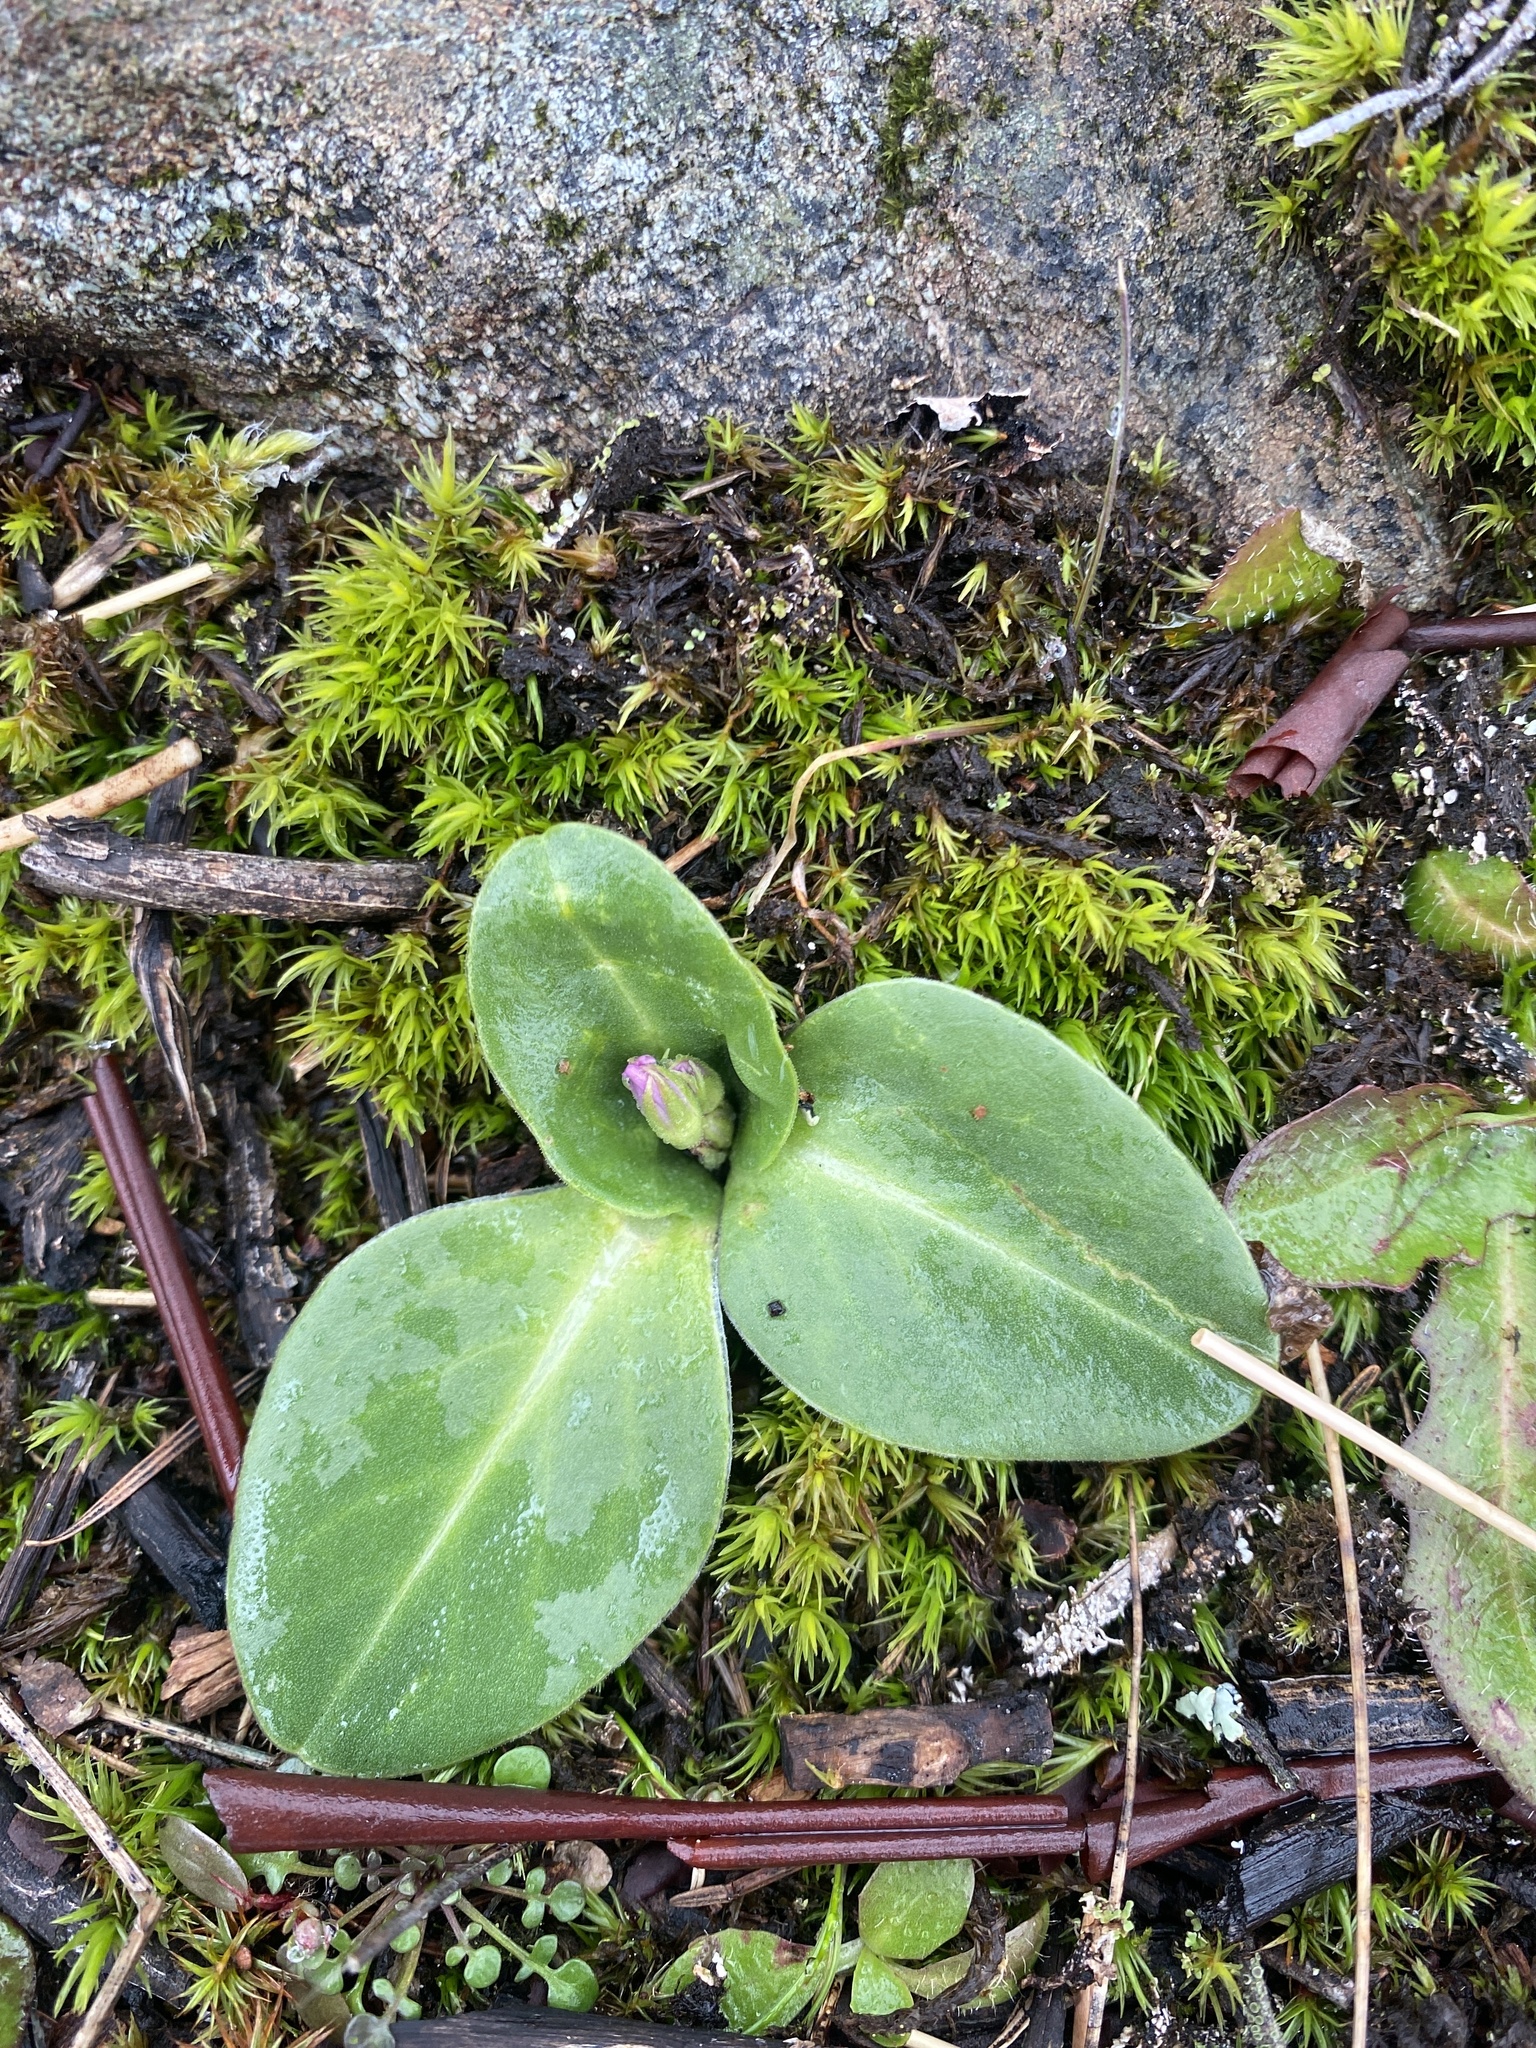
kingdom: Plantae
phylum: Tracheophyta
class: Magnoliopsida
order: Ericales
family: Primulaceae
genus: Dodecatheon
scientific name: Dodecatheon hendersonii
